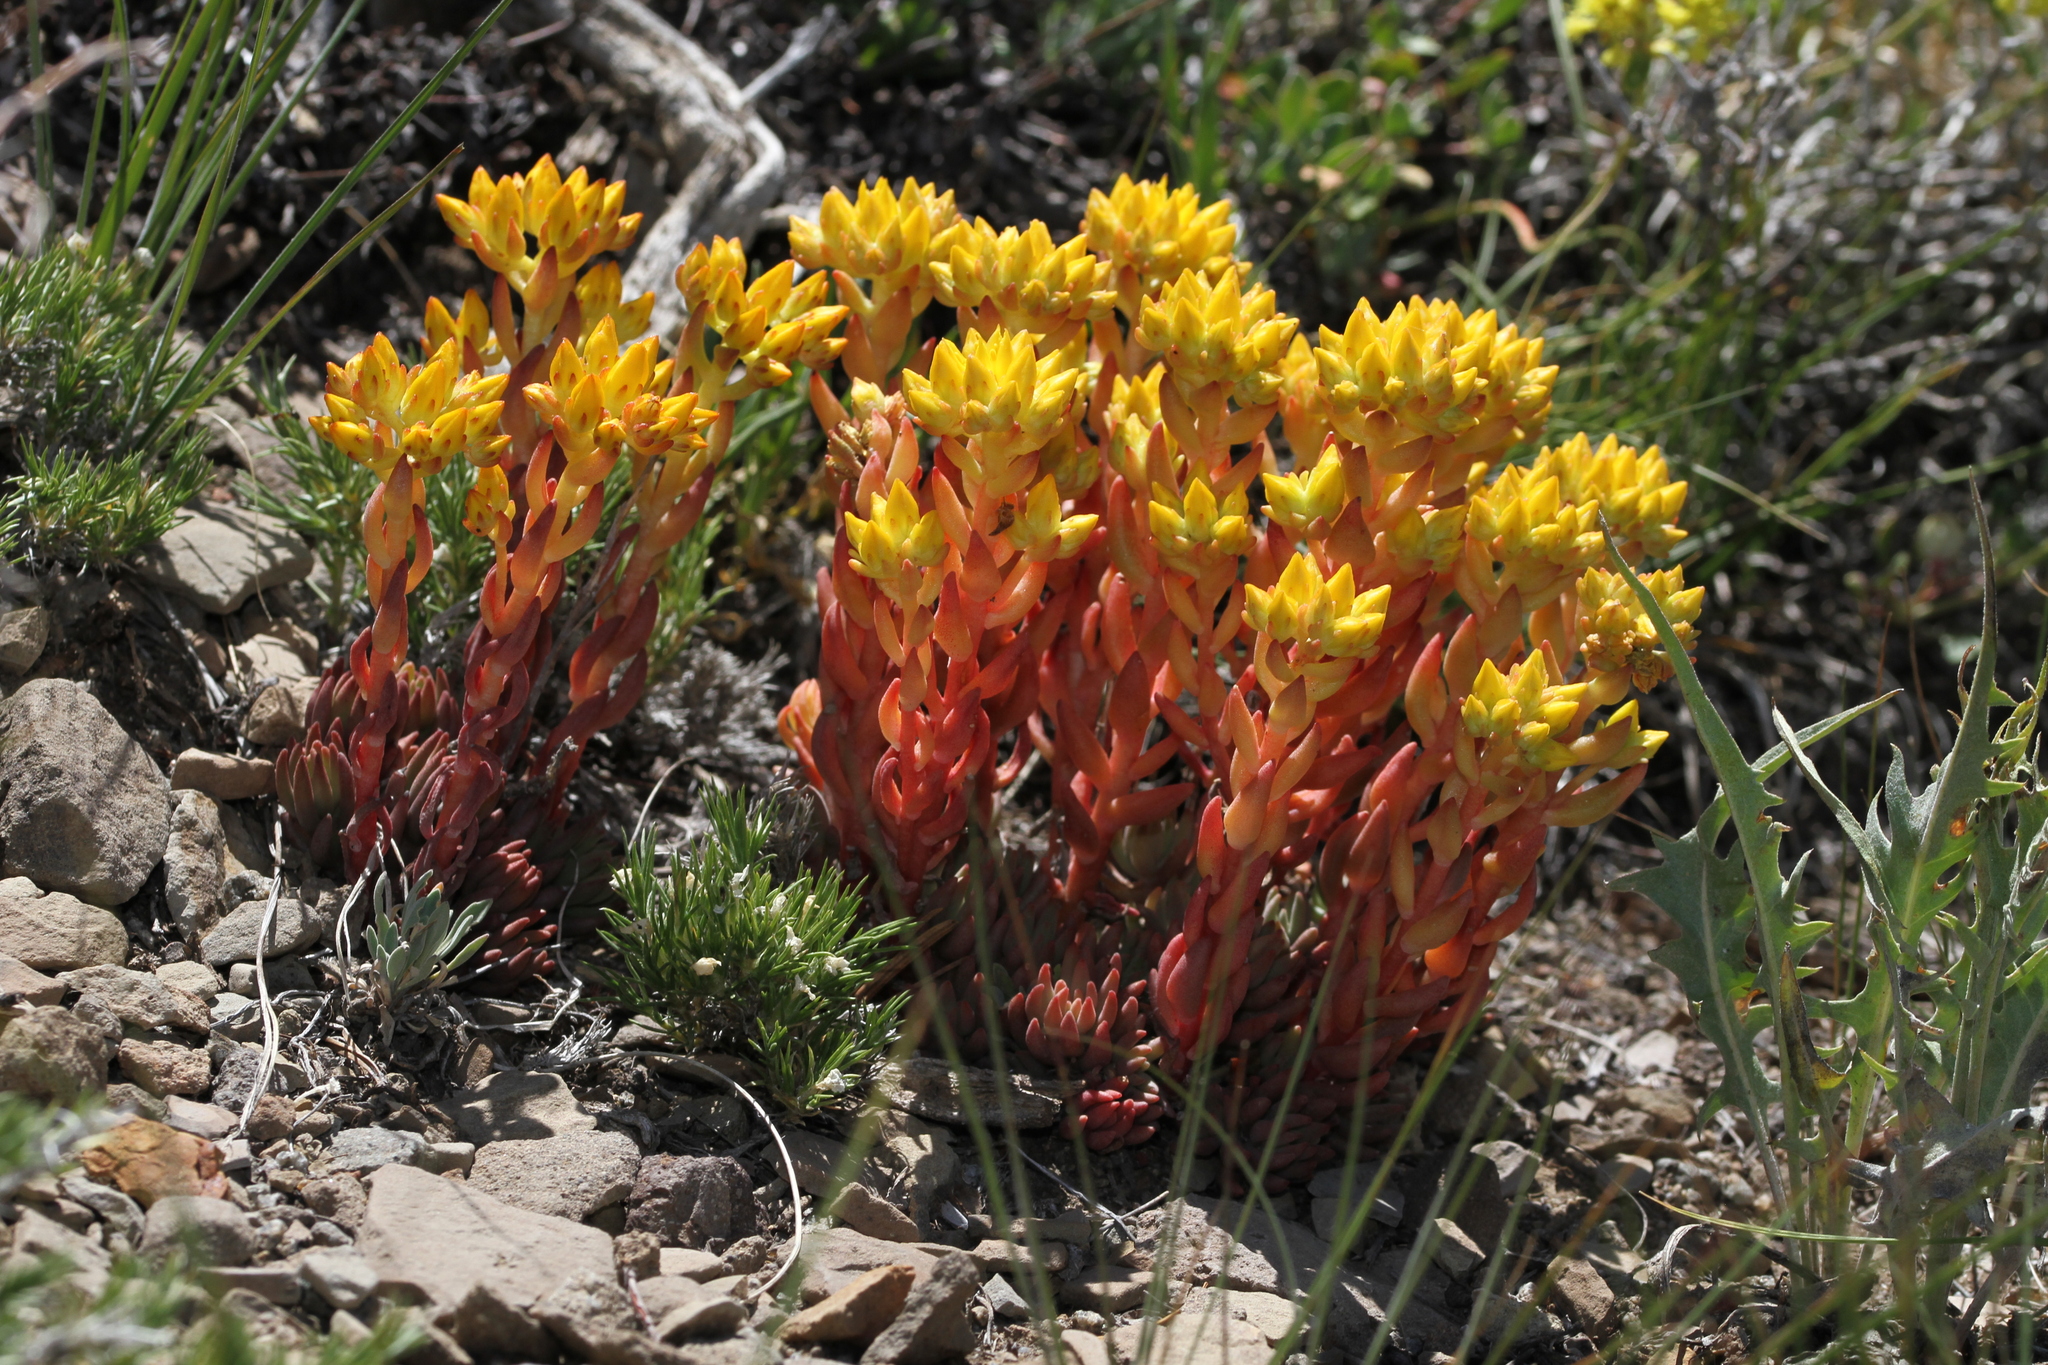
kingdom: Plantae
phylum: Tracheophyta
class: Magnoliopsida
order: Saxifragales
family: Crassulaceae
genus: Sedum
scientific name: Sedum lanceolatum
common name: Common stonecrop
